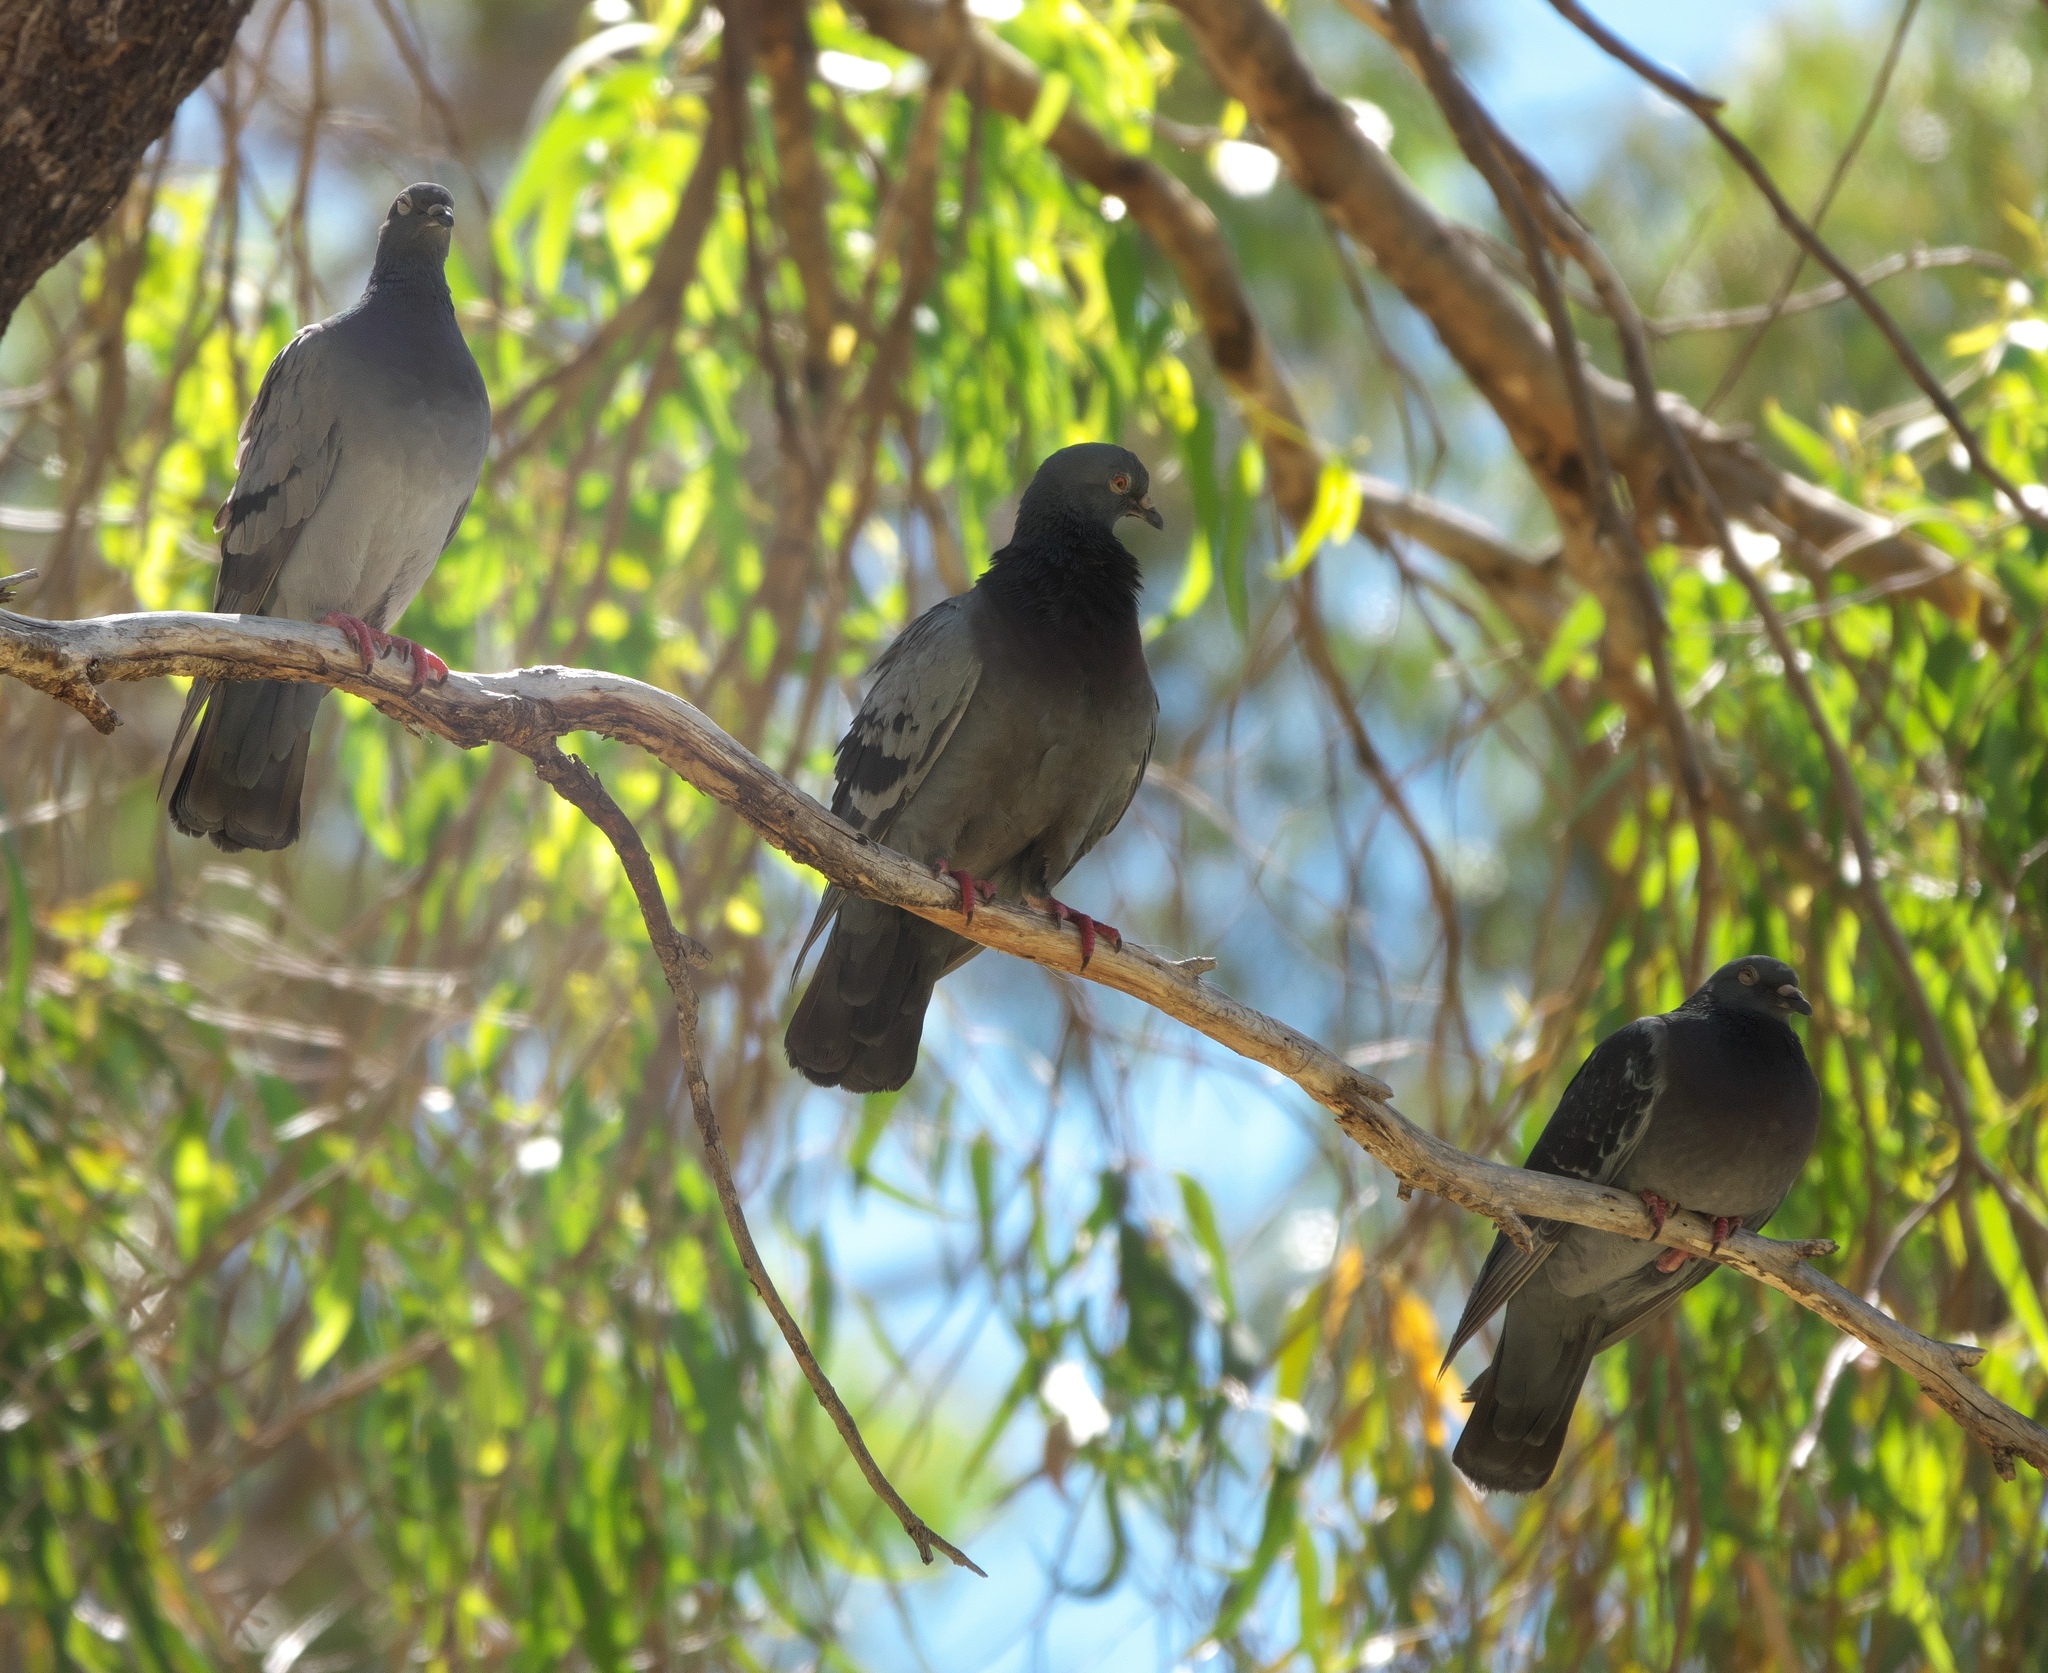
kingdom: Animalia
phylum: Chordata
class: Aves
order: Columbiformes
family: Columbidae
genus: Columba
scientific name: Columba livia
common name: Rock pigeon
